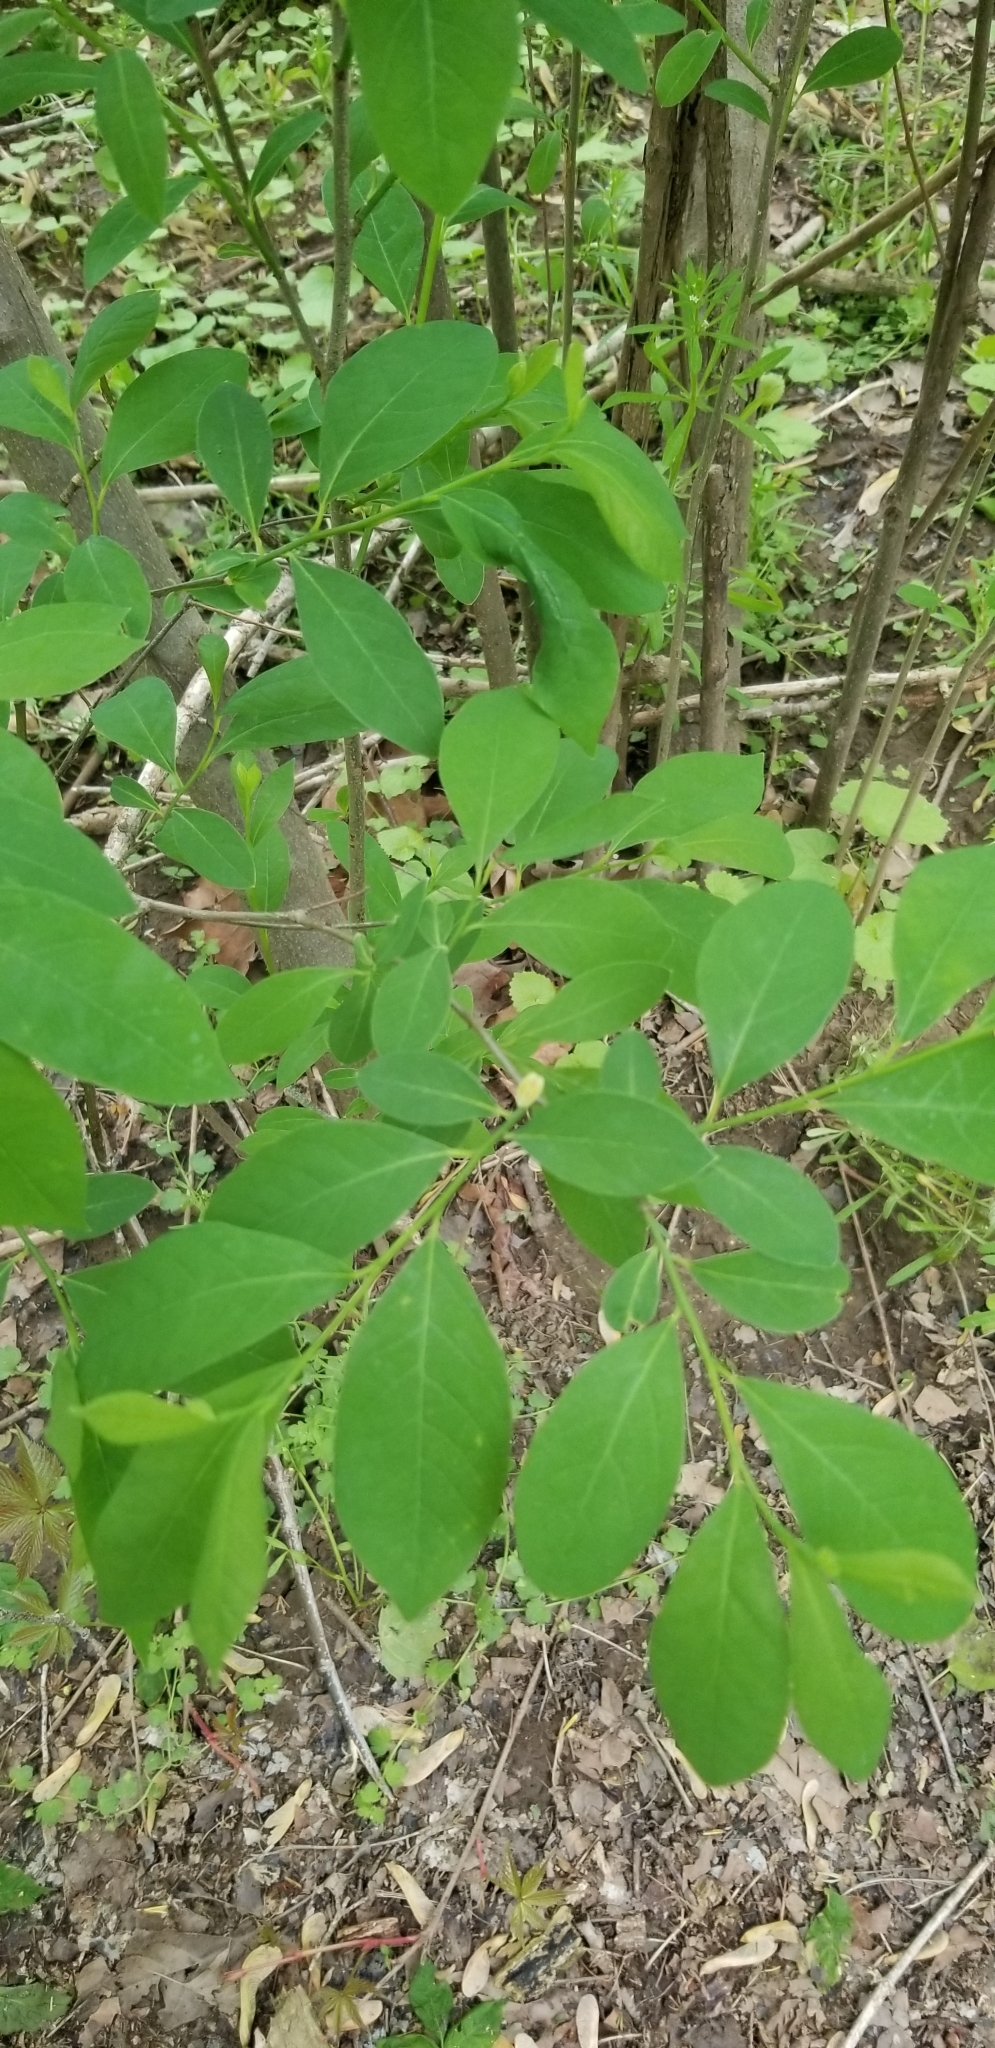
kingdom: Plantae
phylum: Tracheophyta
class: Magnoliopsida
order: Laurales
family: Lauraceae
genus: Lindera
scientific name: Lindera benzoin
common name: Spicebush
